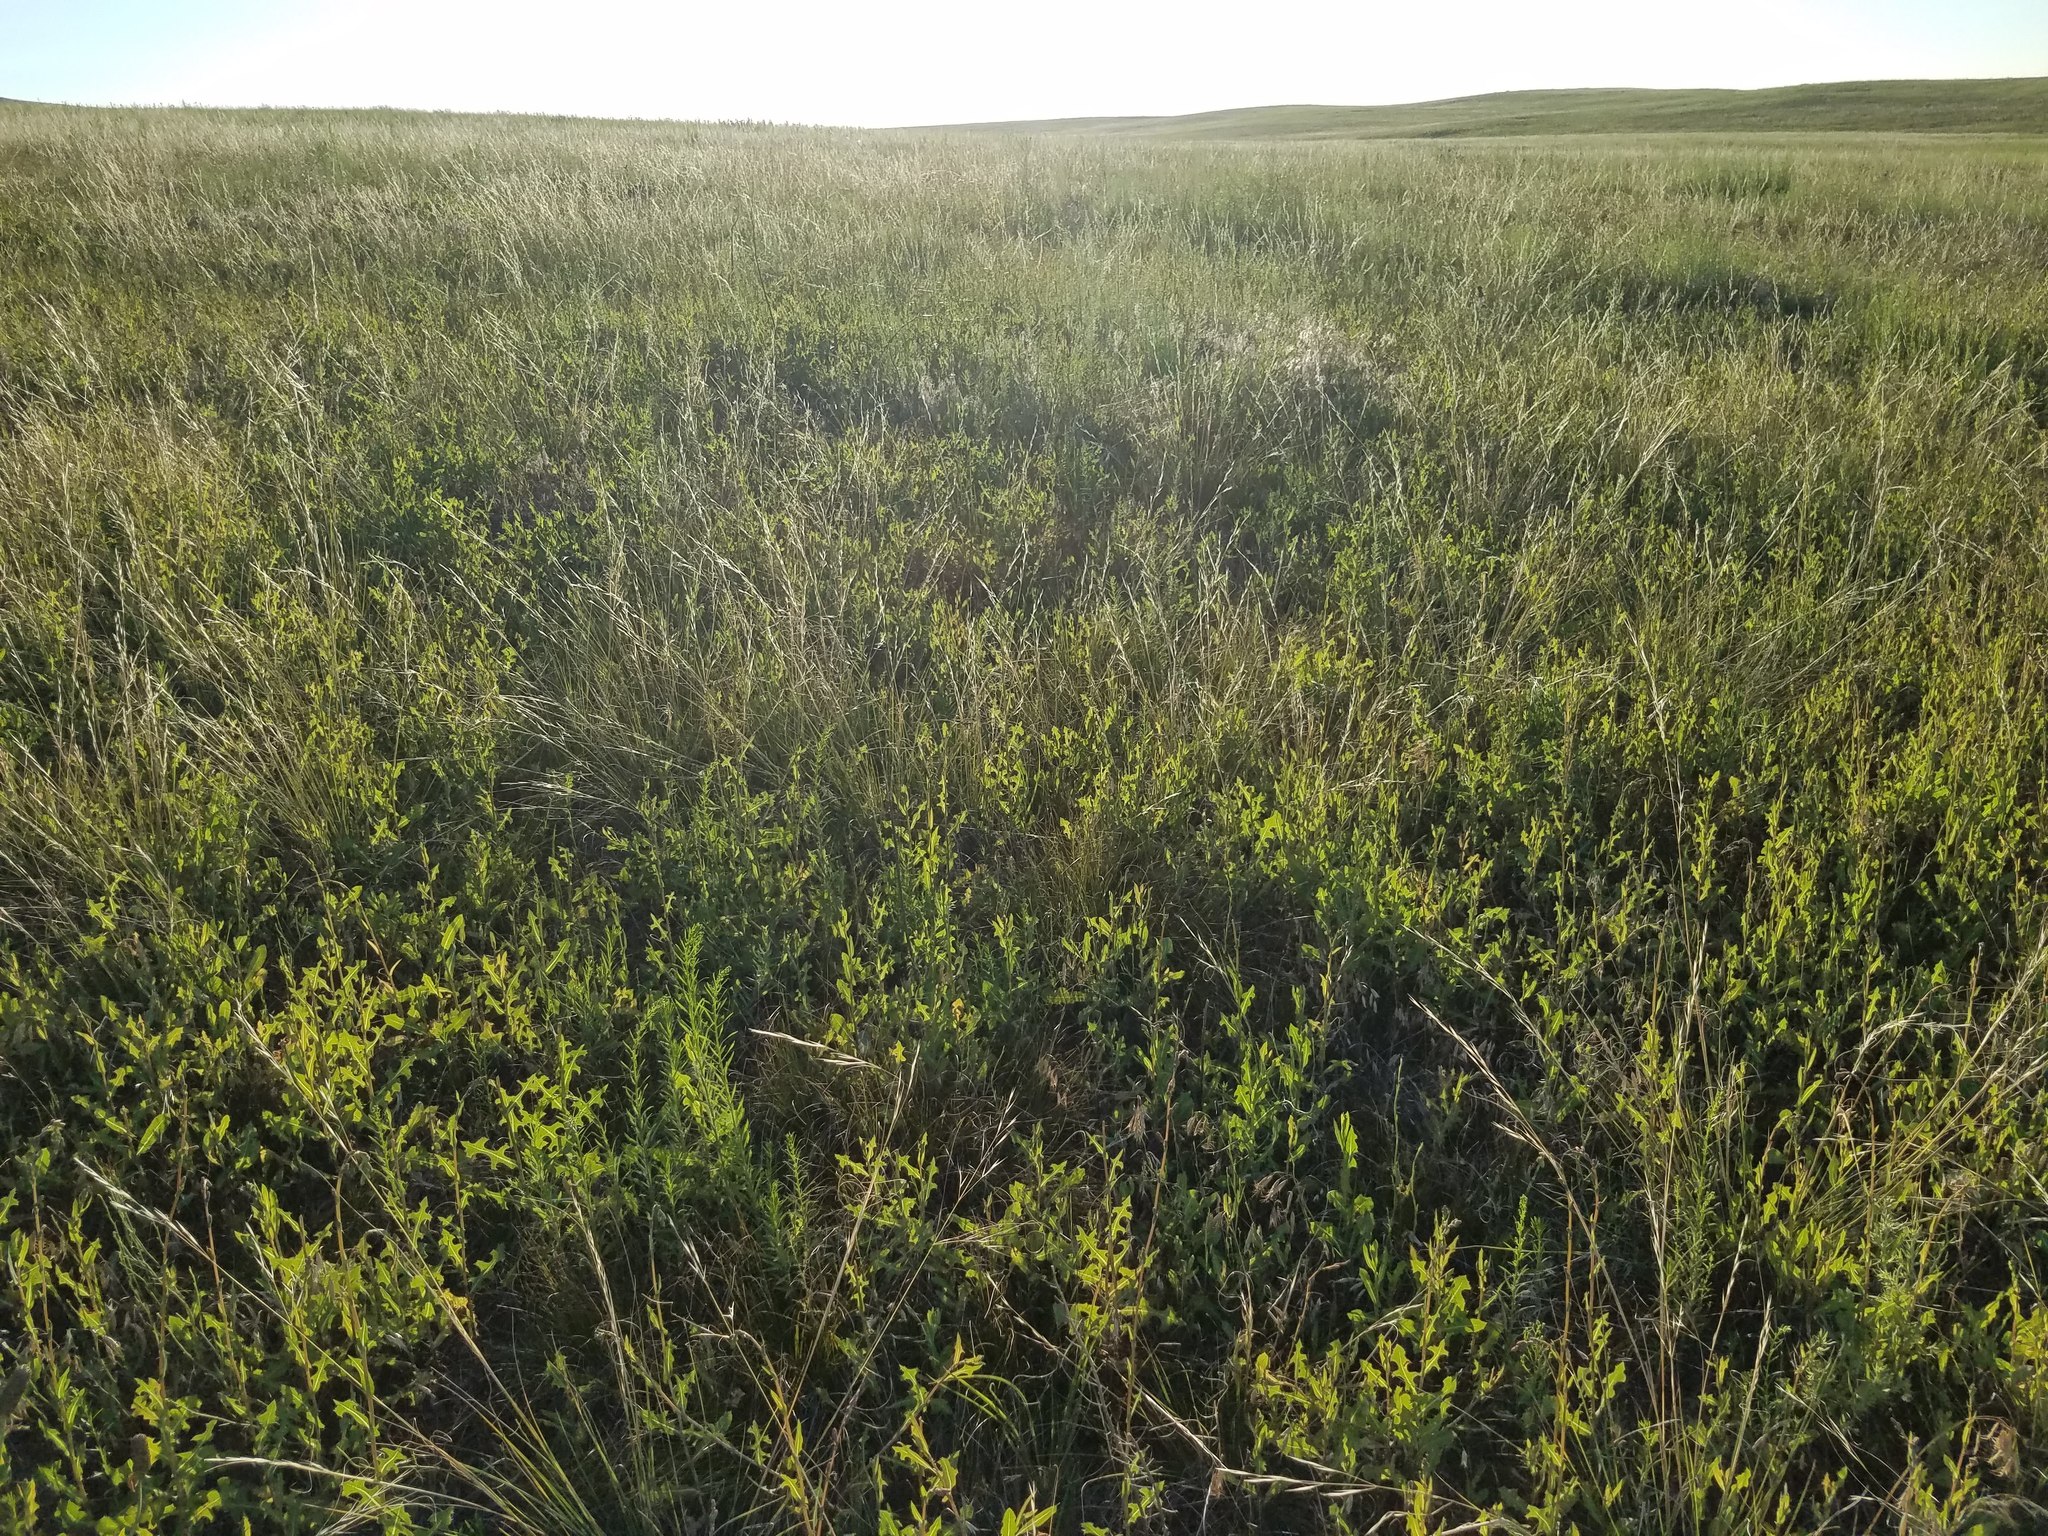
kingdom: Plantae
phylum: Tracheophyta
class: Magnoliopsida
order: Asterales
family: Asteraceae
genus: Lactuca
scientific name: Lactuca serriola
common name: Prickly lettuce
